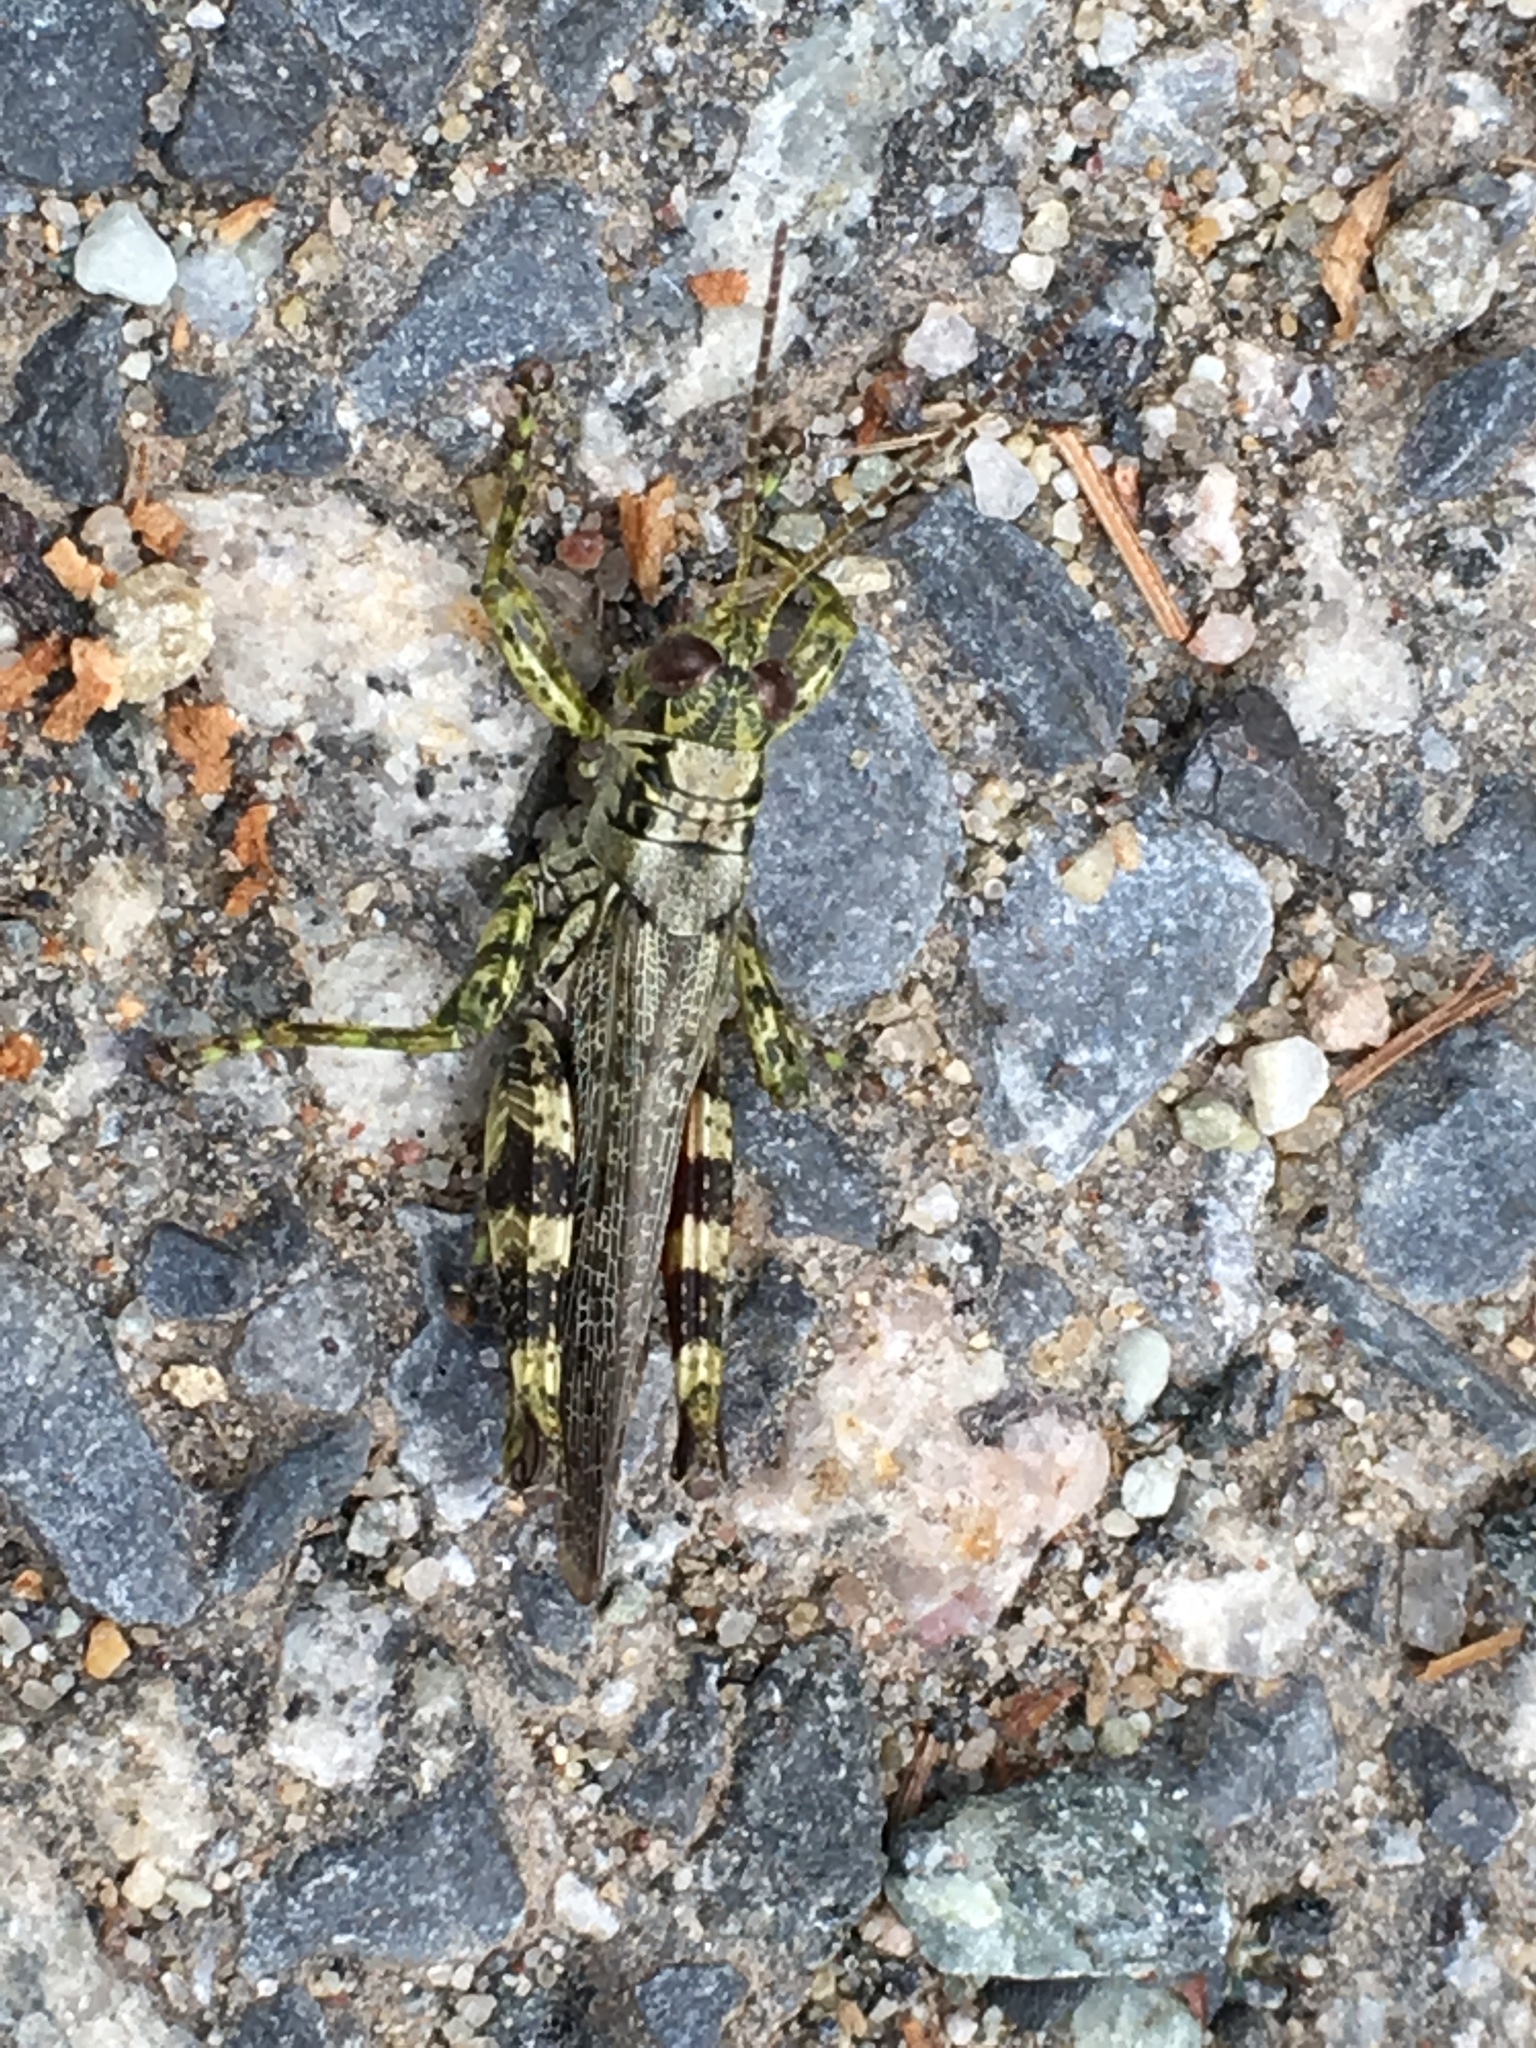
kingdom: Animalia
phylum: Arthropoda
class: Insecta
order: Orthoptera
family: Acrididae
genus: Melanoplus
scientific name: Melanoplus punctulatus
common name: Pine-tree spur-throat grasshopper
